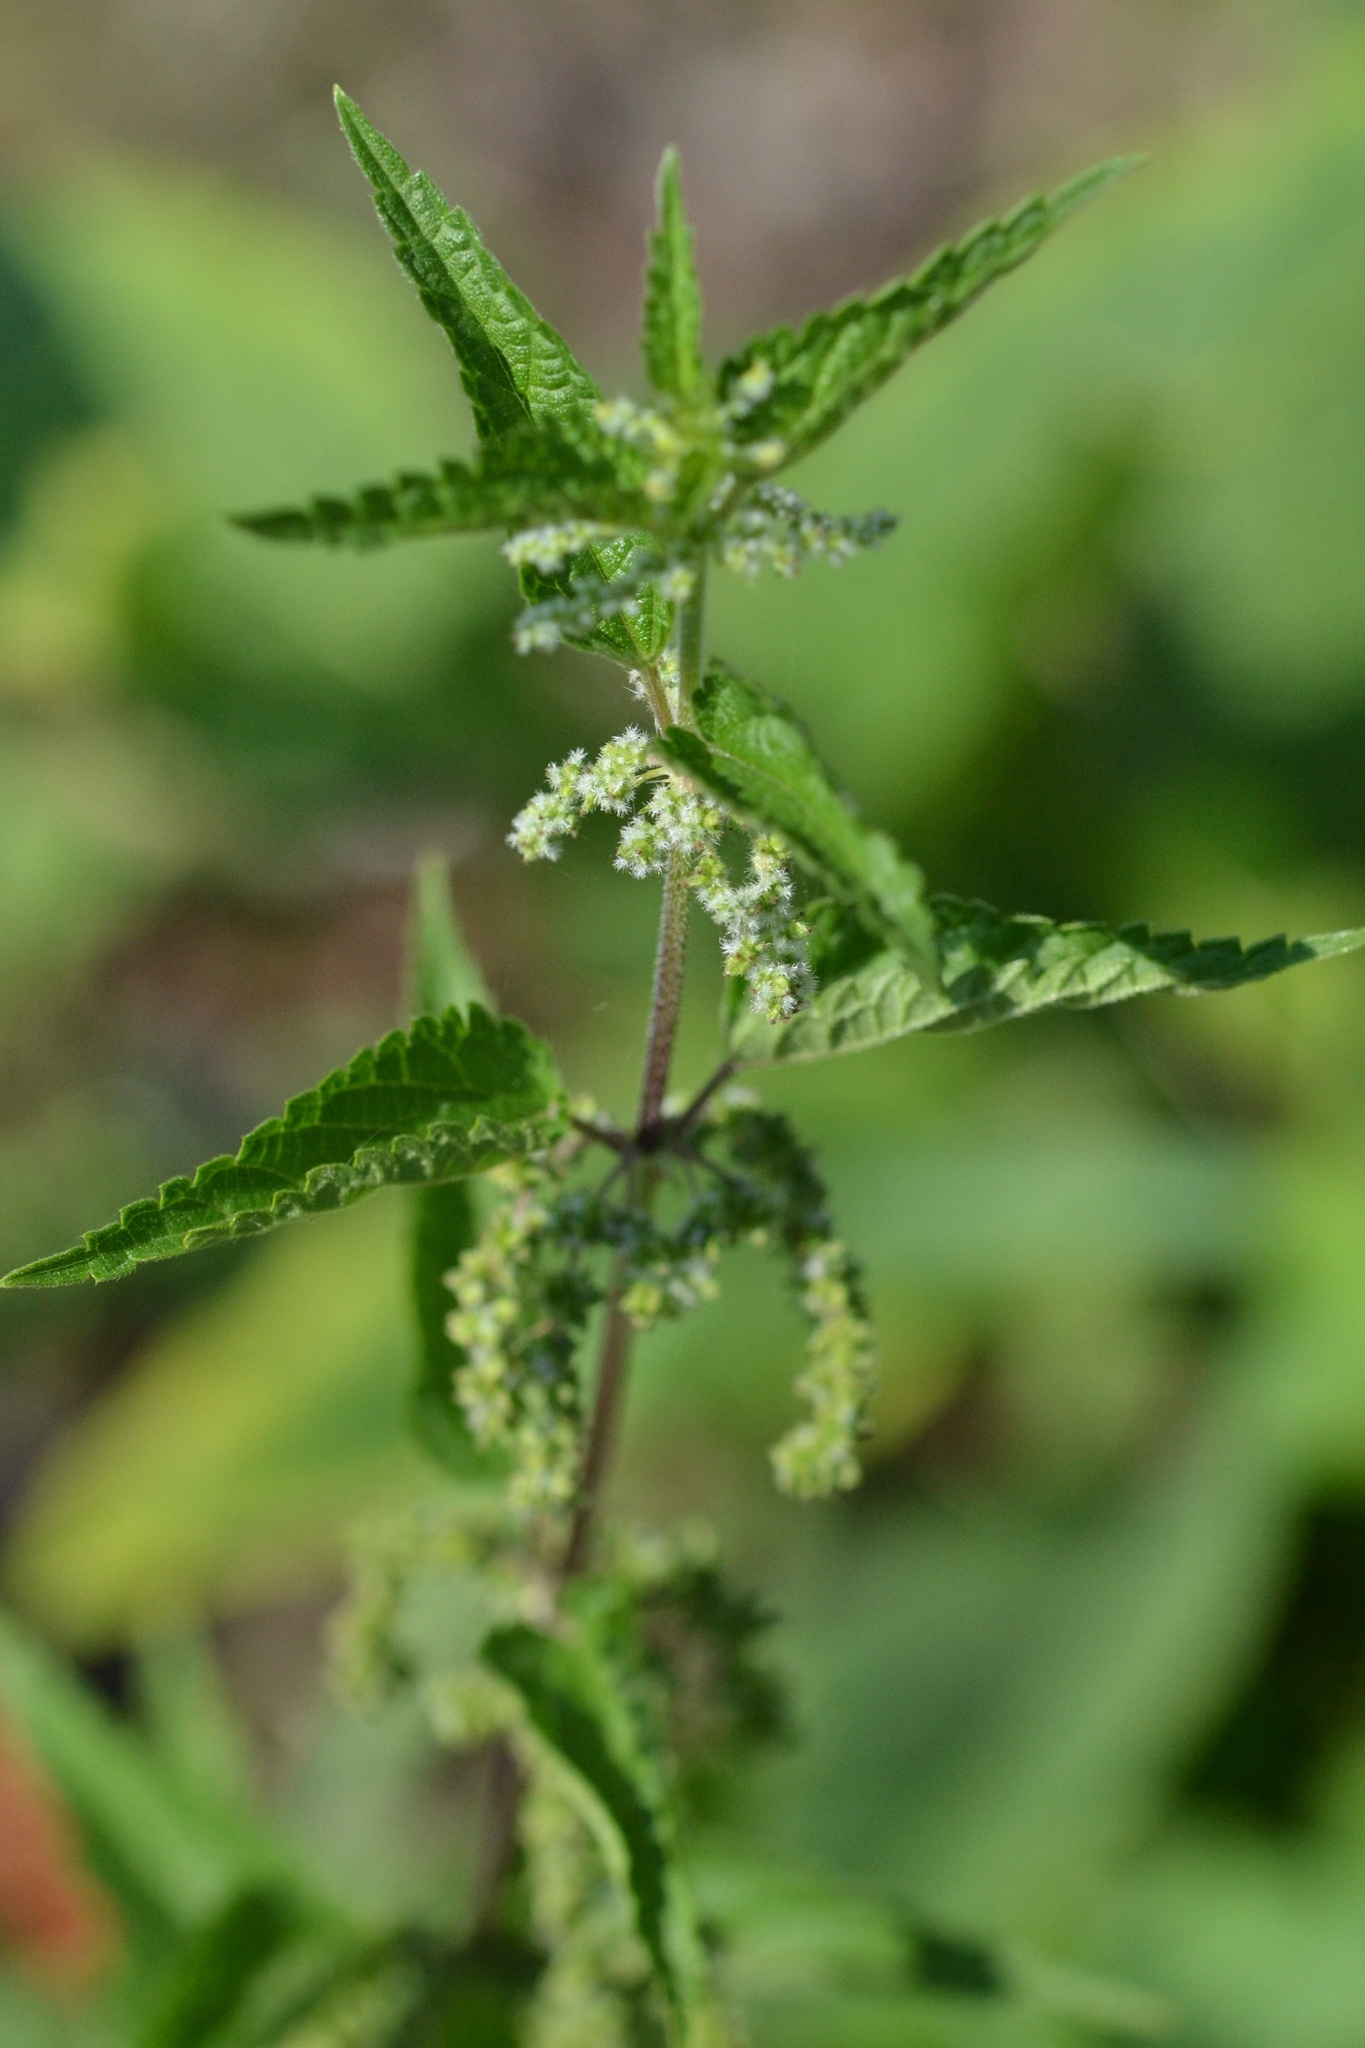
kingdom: Plantae
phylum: Tracheophyta
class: Magnoliopsida
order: Rosales
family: Urticaceae
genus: Urtica
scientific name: Urtica dioica
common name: Common nettle
